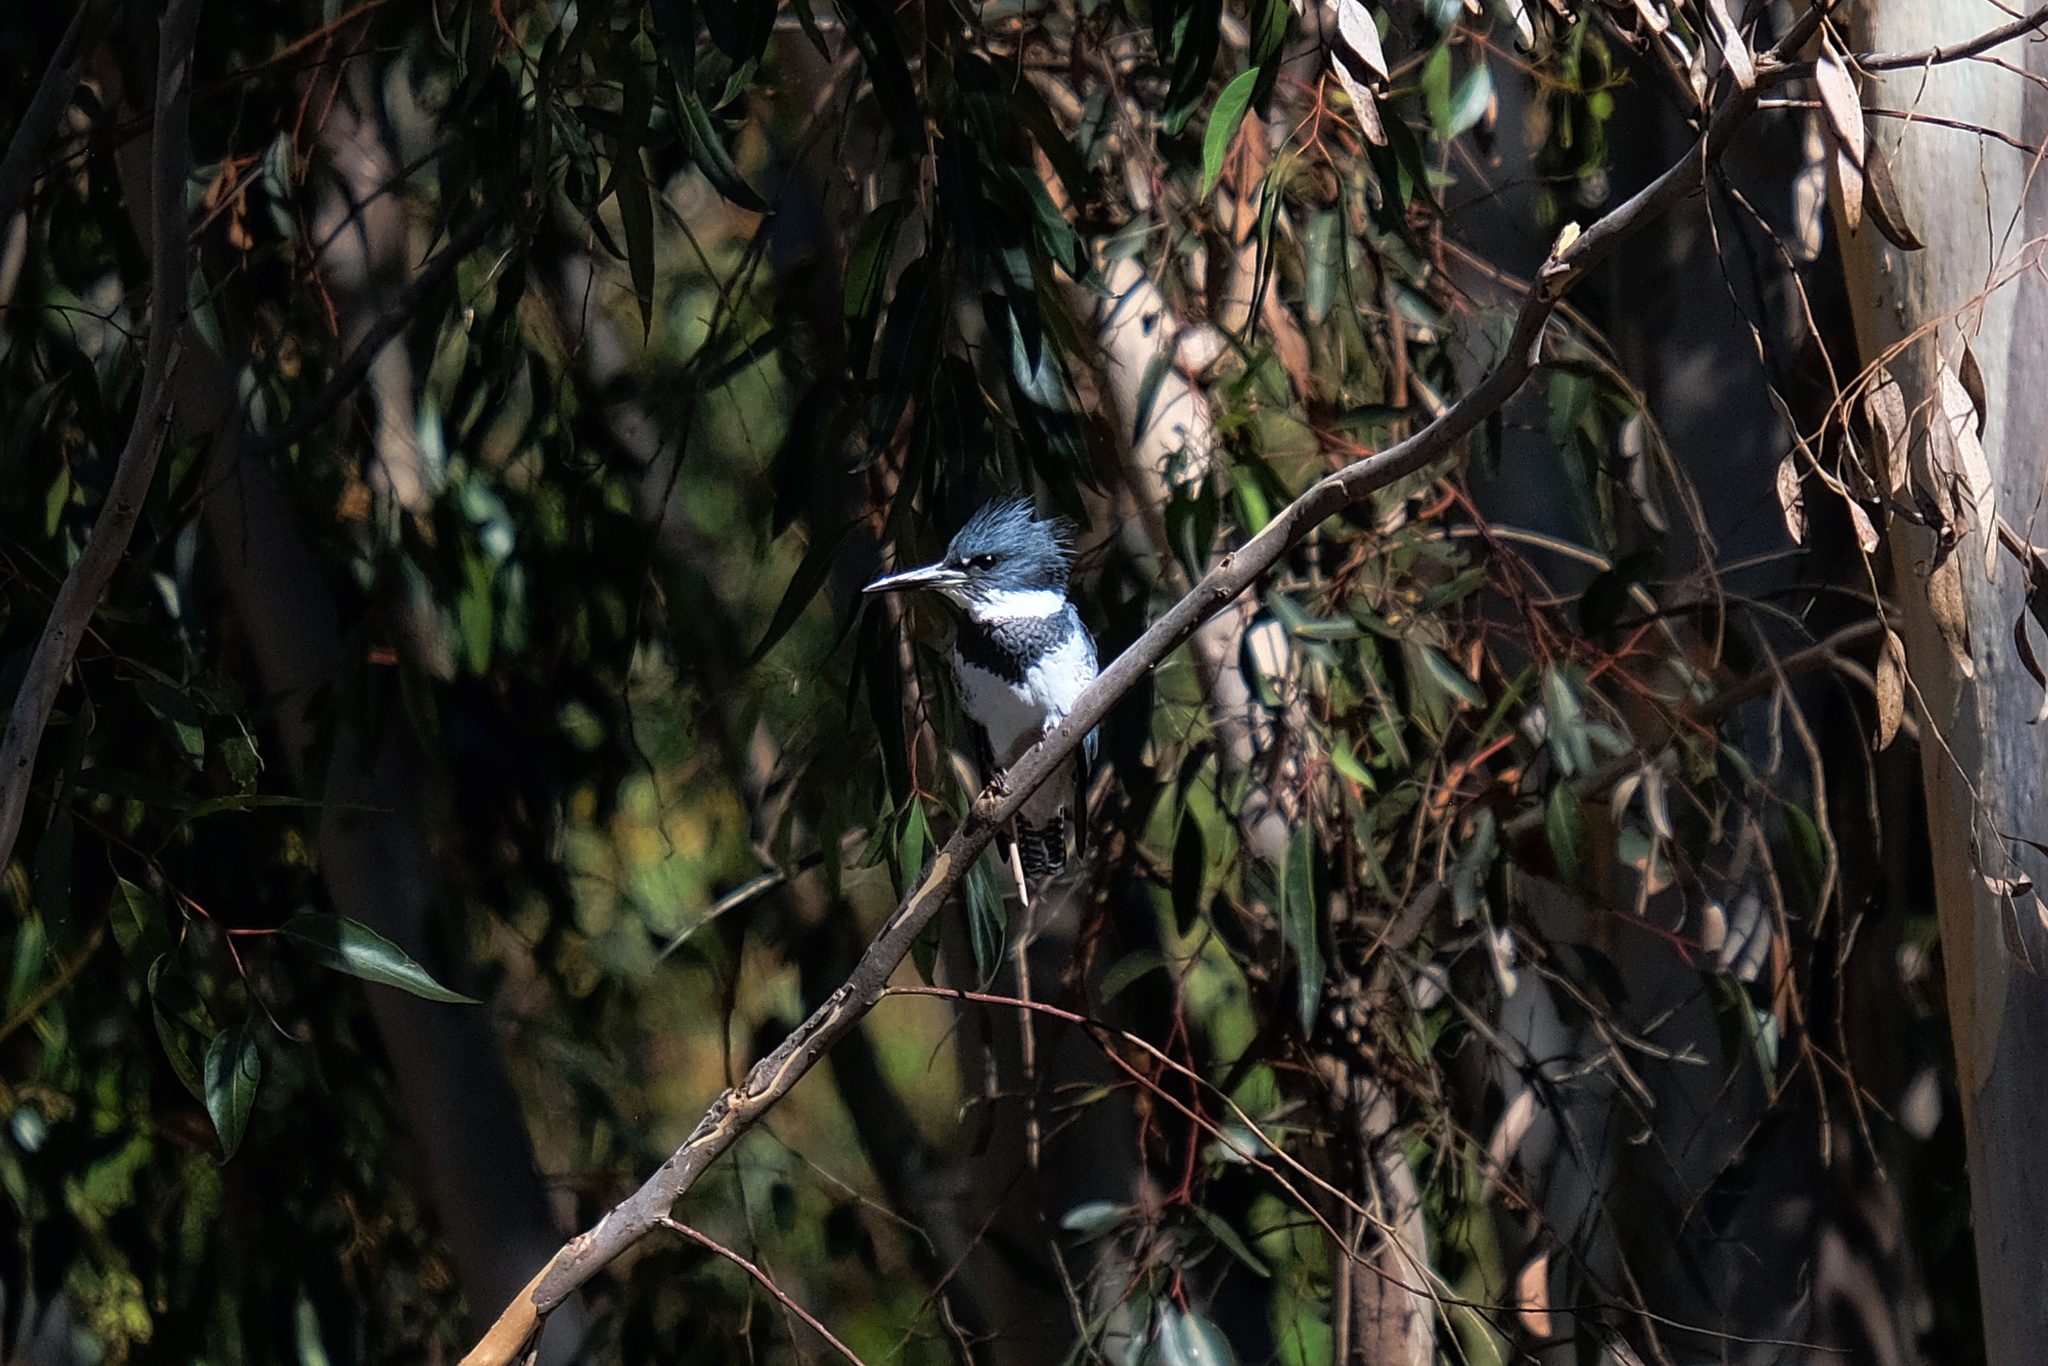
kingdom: Animalia
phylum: Chordata
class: Aves
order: Coraciiformes
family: Alcedinidae
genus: Megaceryle
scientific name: Megaceryle alcyon
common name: Belted kingfisher
